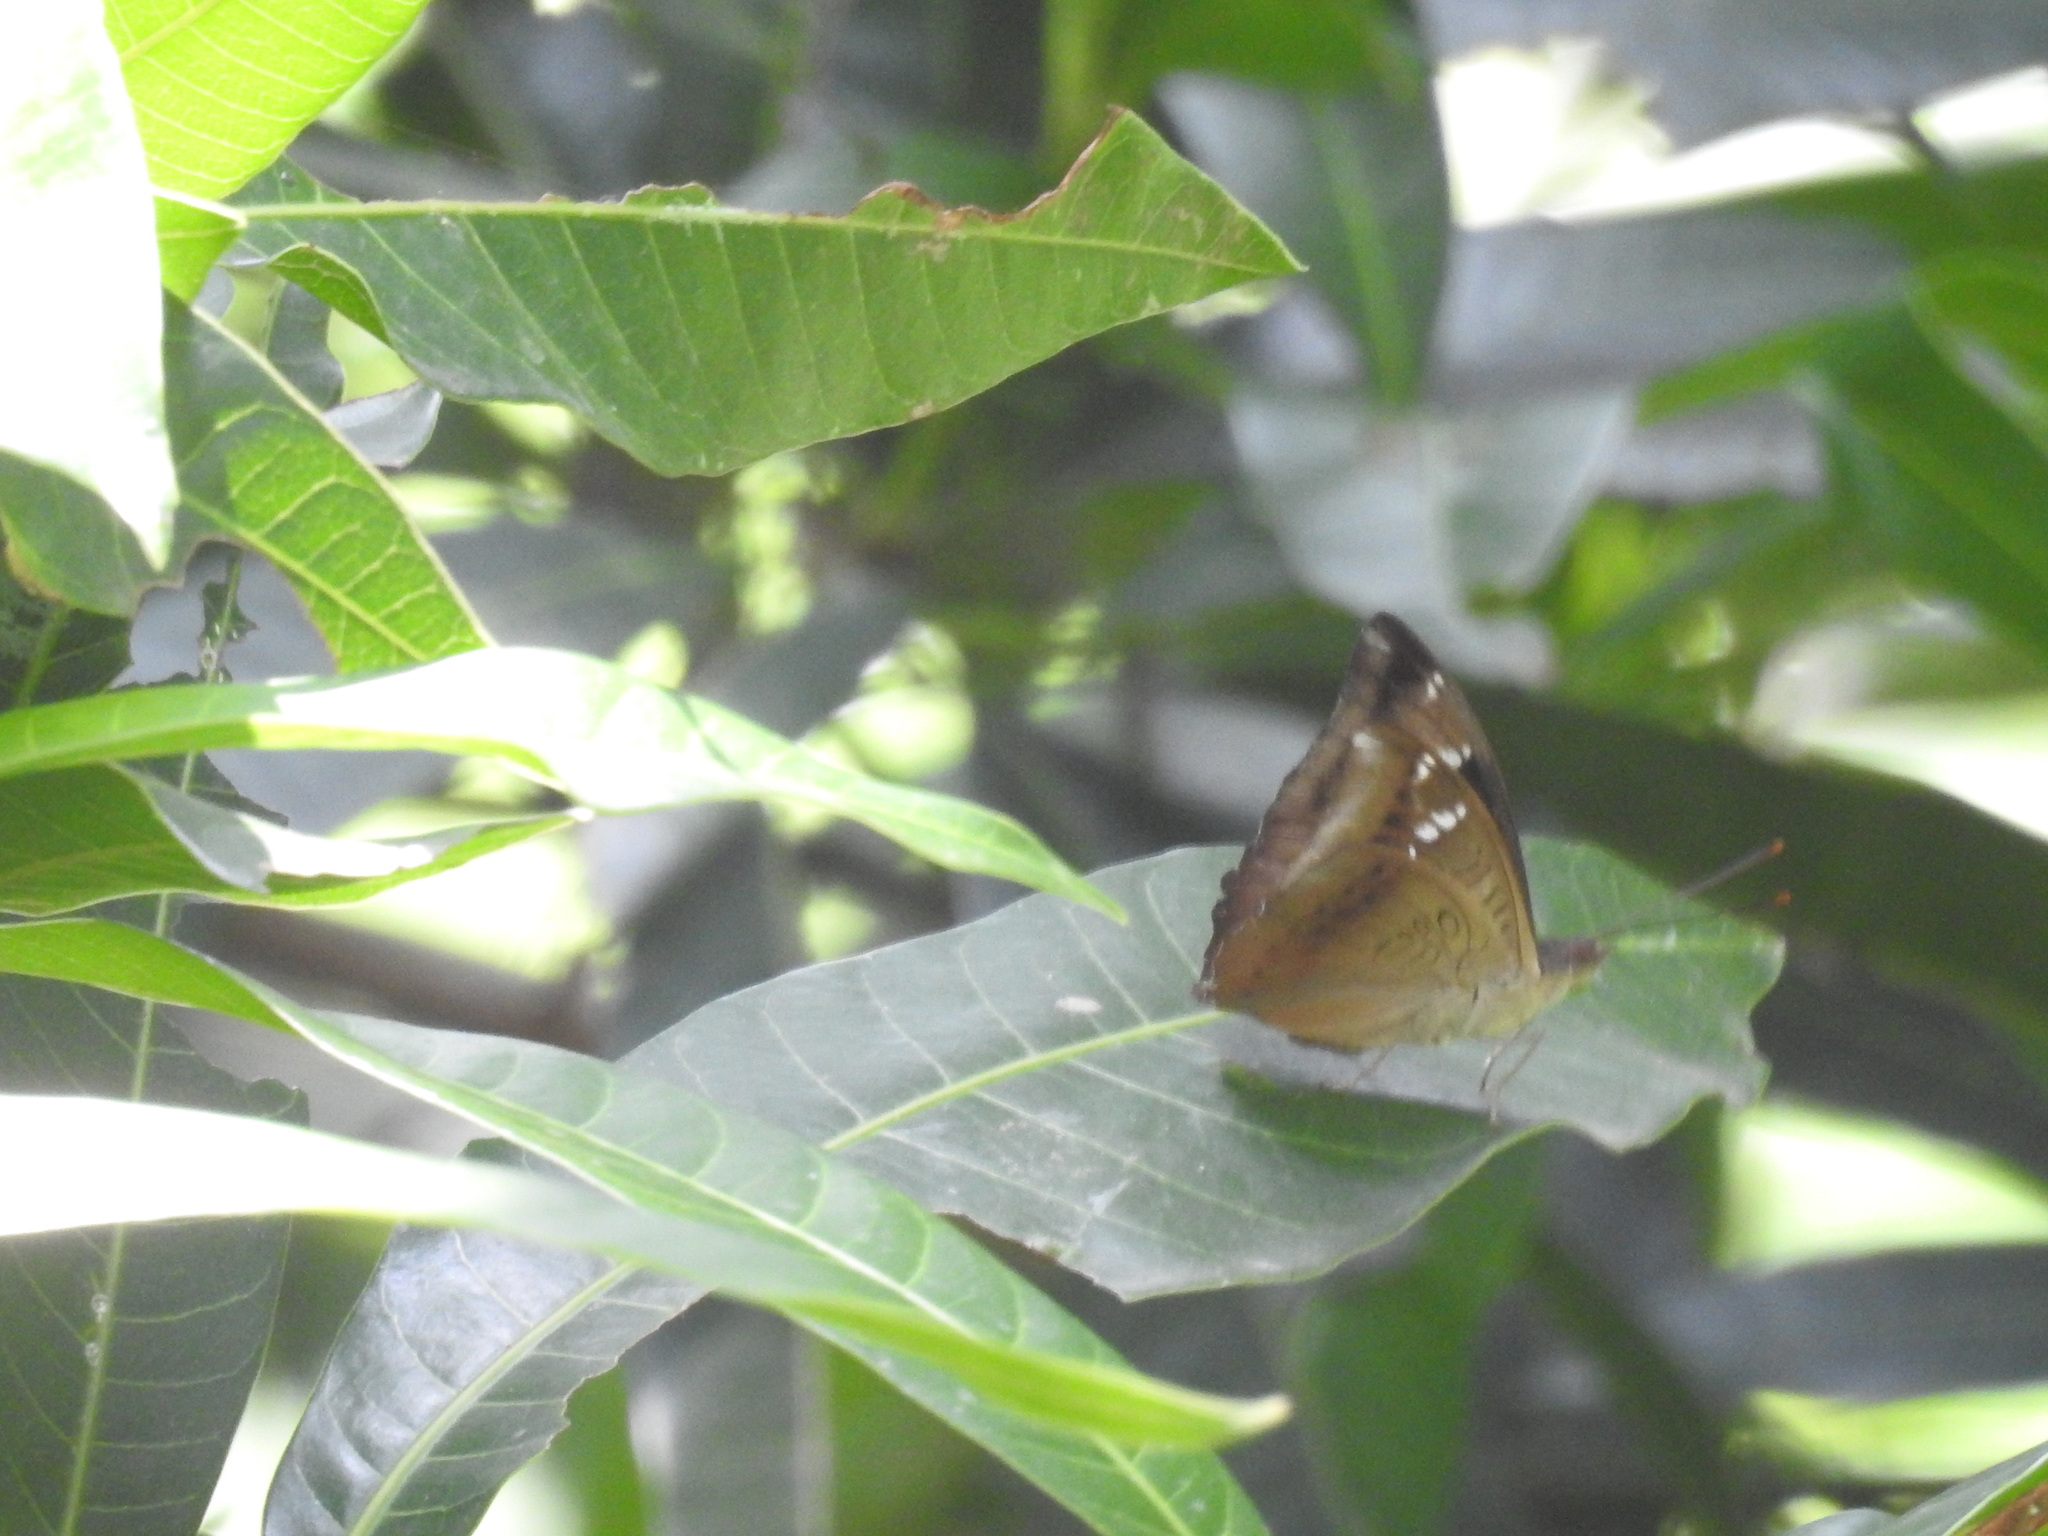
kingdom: Animalia
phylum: Arthropoda
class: Insecta
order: Lepidoptera
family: Nymphalidae
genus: Euthalia
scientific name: Euthalia aconthea
